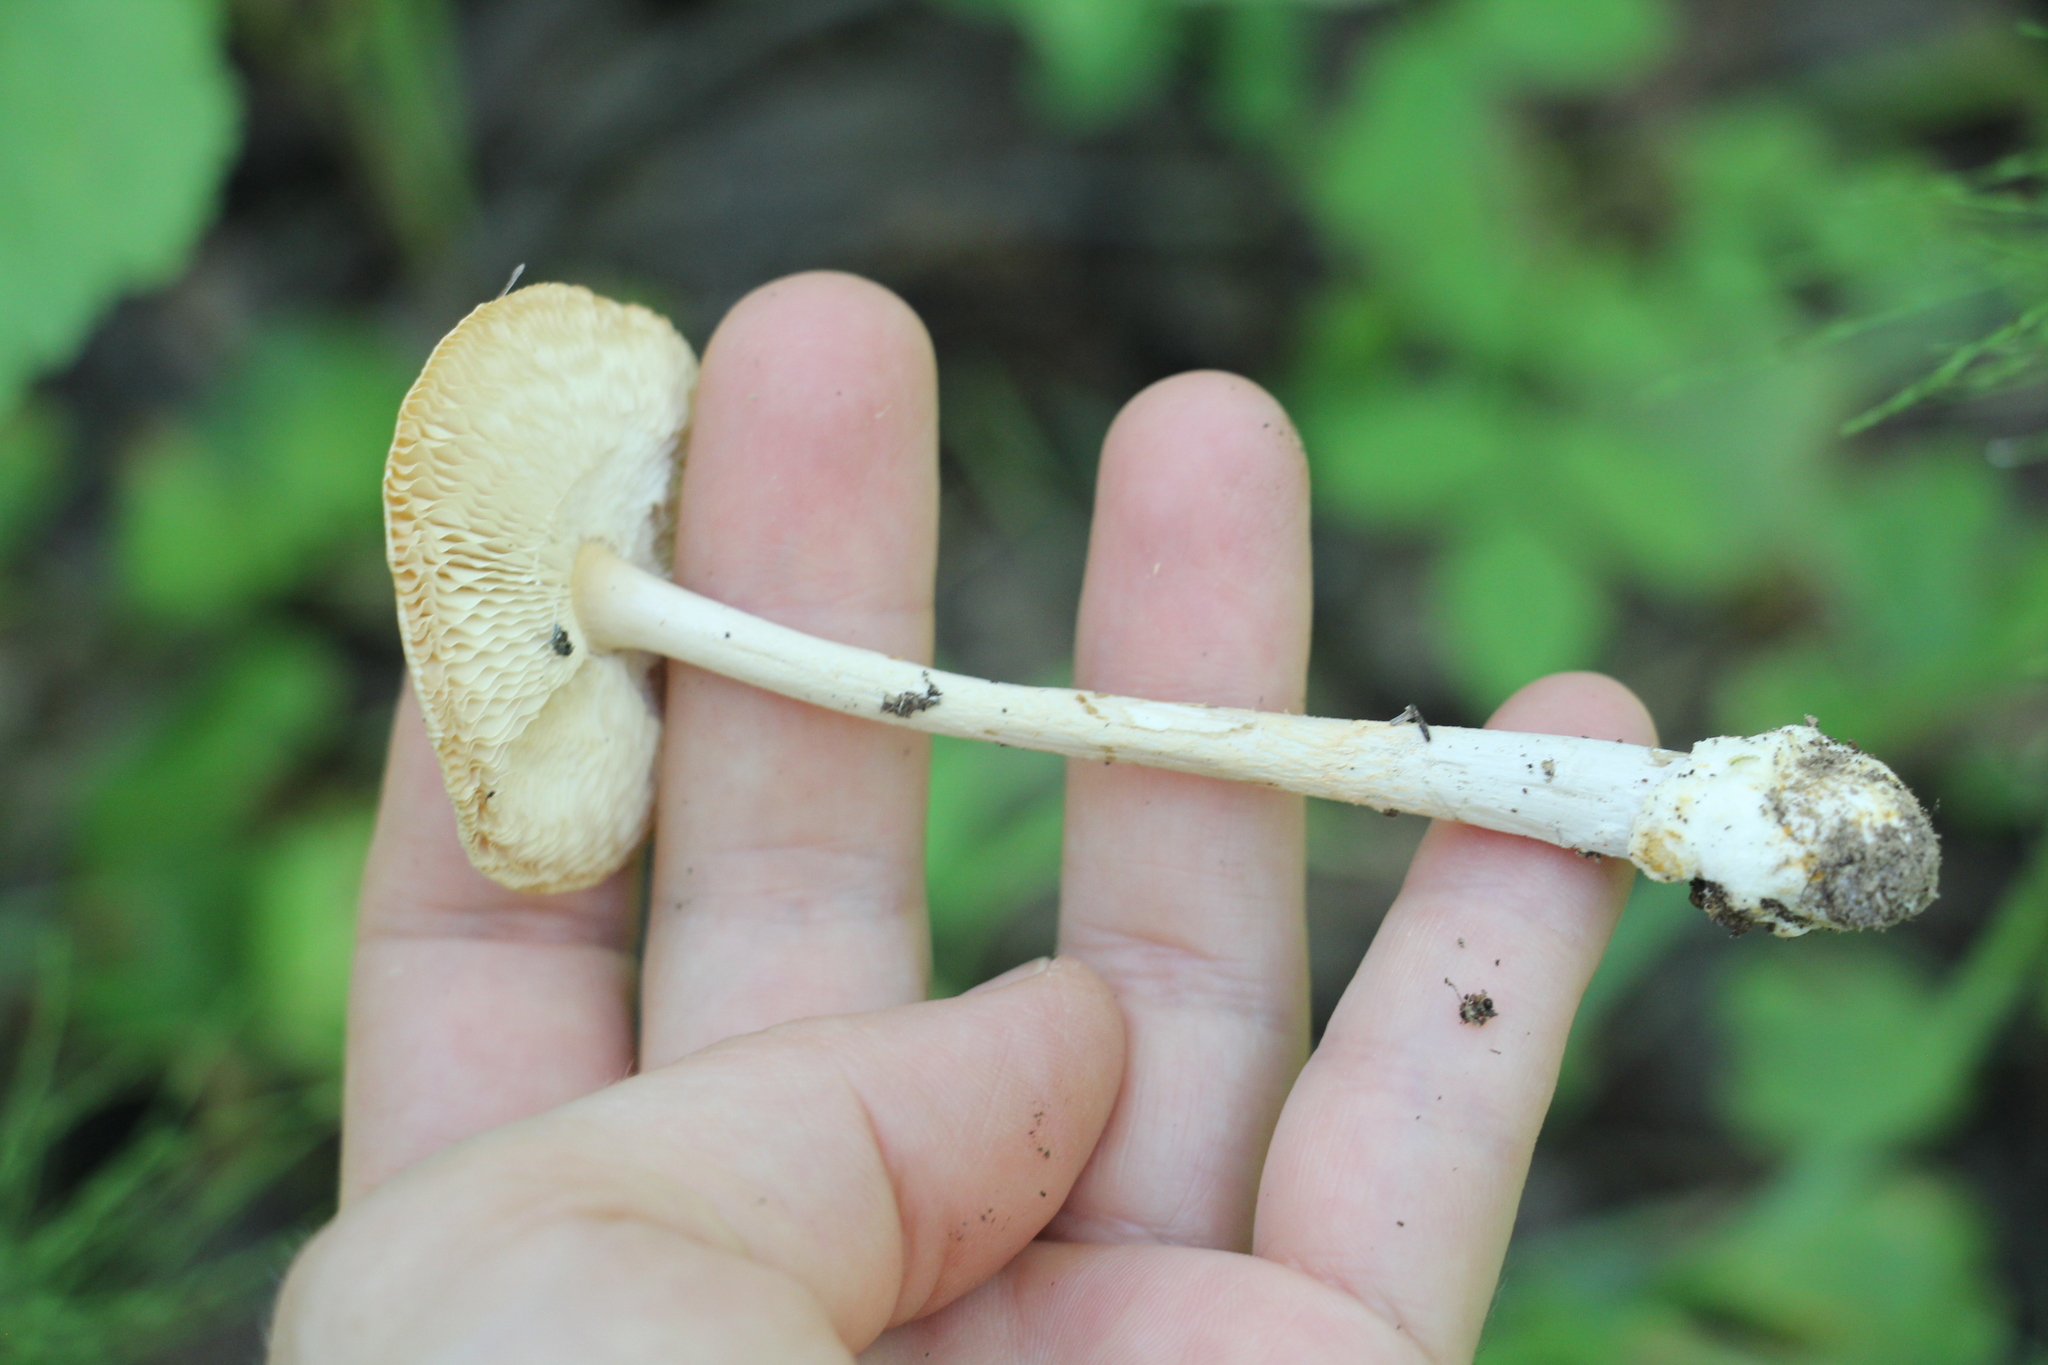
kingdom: Fungi
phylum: Basidiomycota
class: Agaricomycetes
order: Agaricales
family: Amanitaceae
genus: Amanita
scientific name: Amanita crocea
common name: Orange grisette
